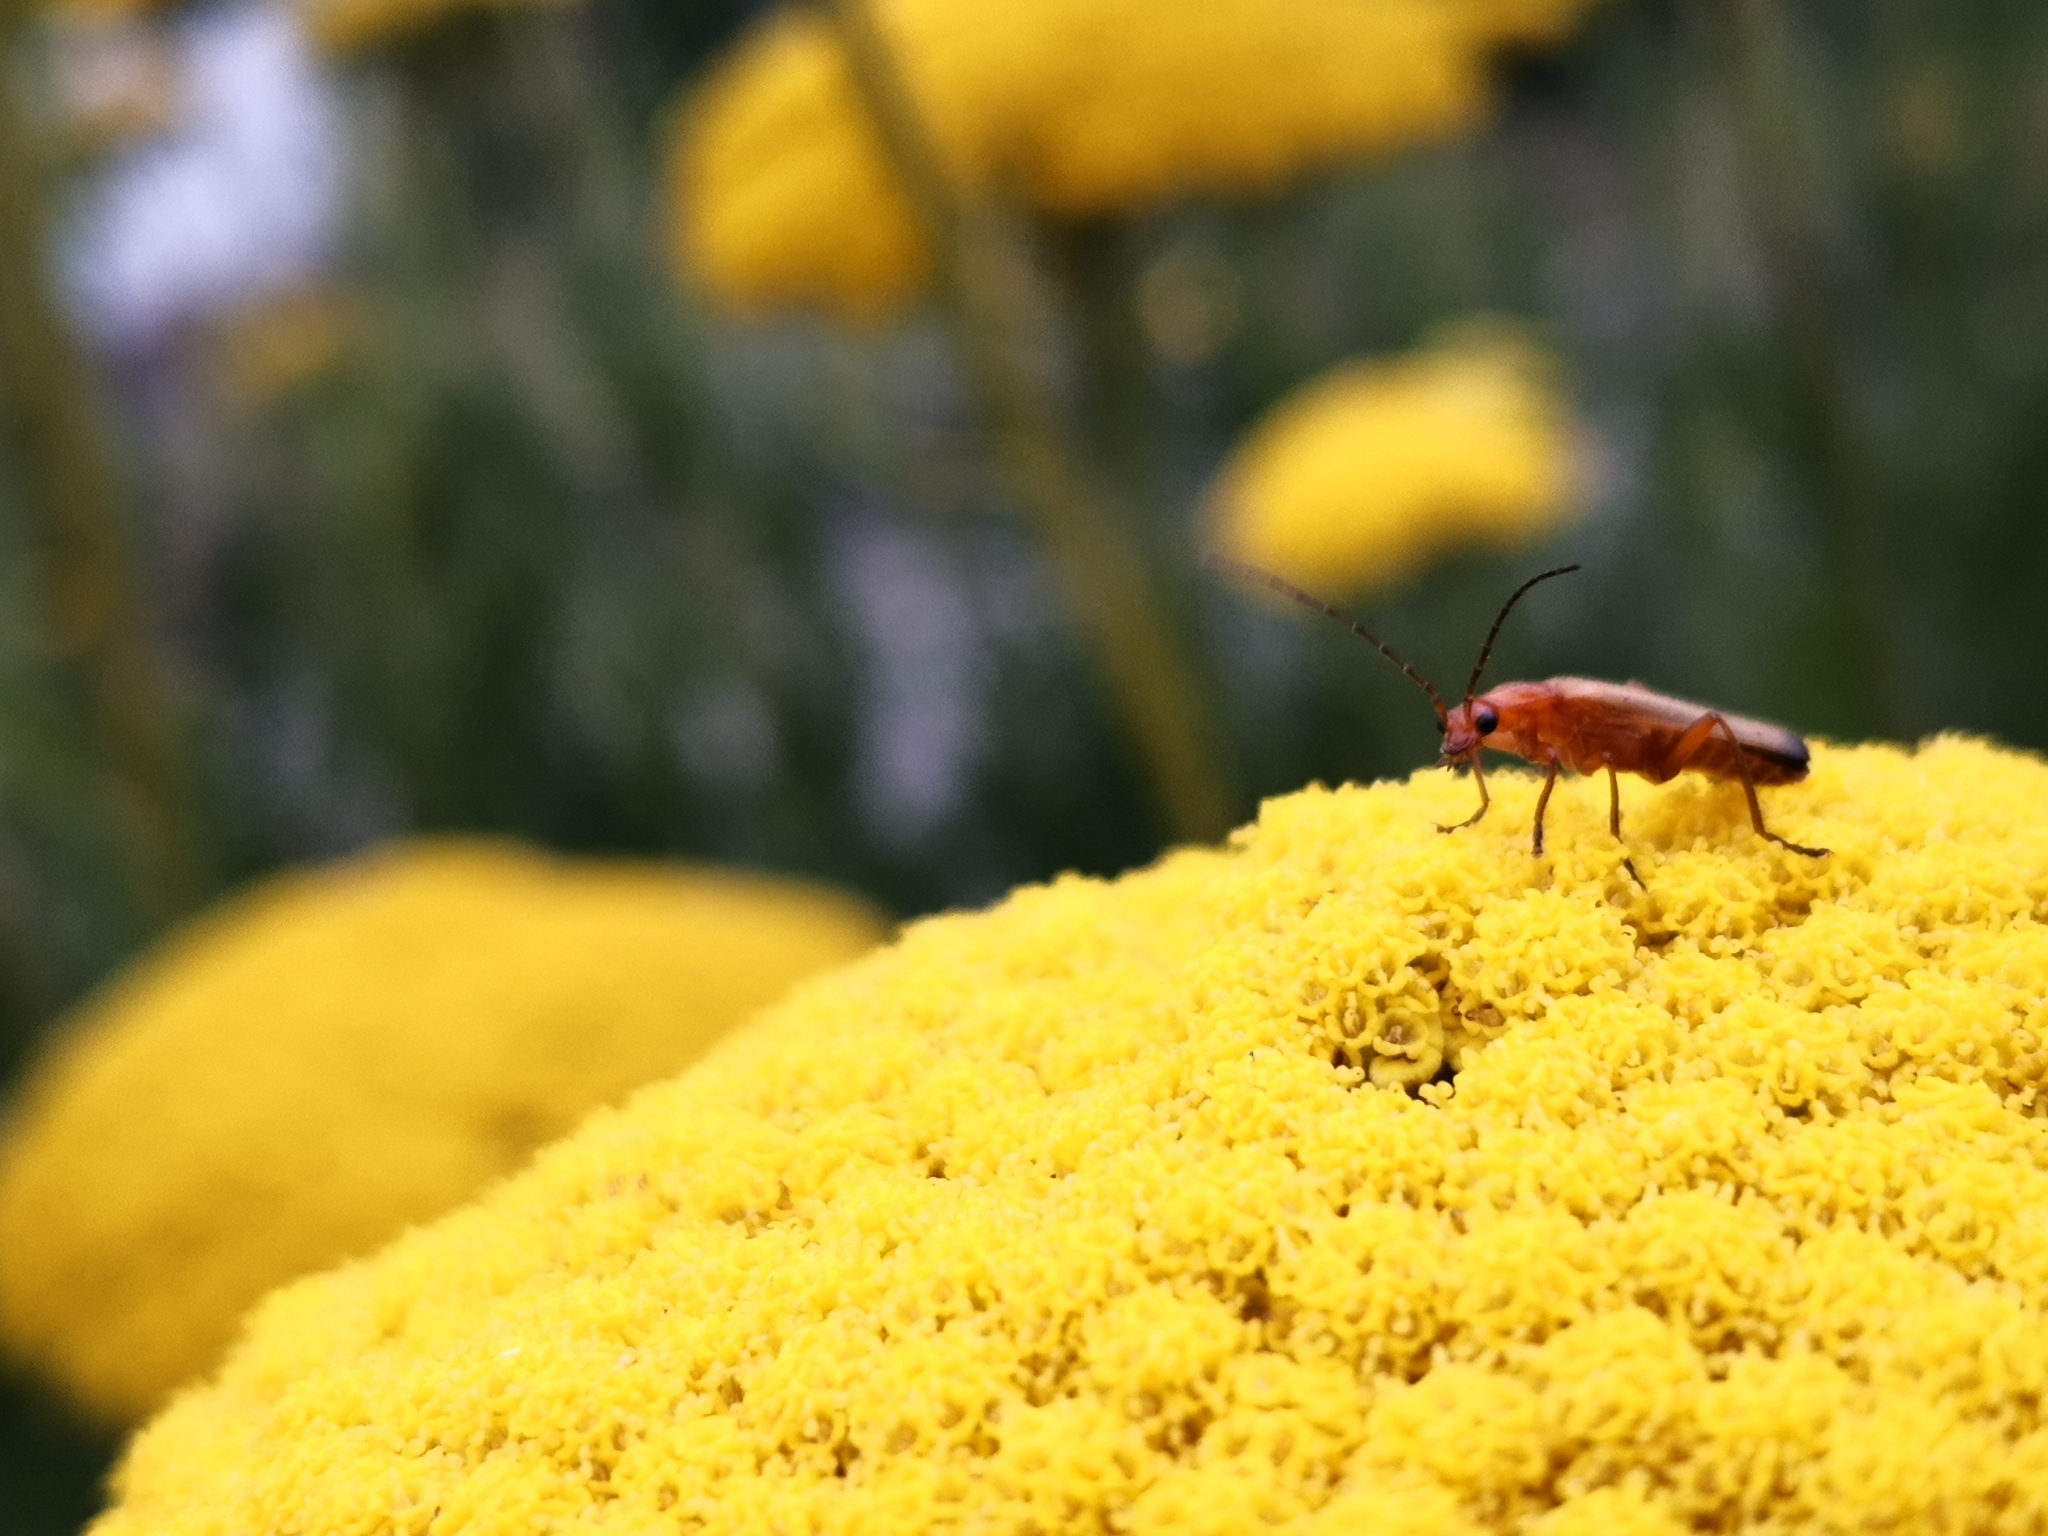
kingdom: Animalia
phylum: Arthropoda
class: Insecta
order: Coleoptera
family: Cantharidae
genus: Rhagonycha
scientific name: Rhagonycha fulva
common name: Common red soldier beetle
